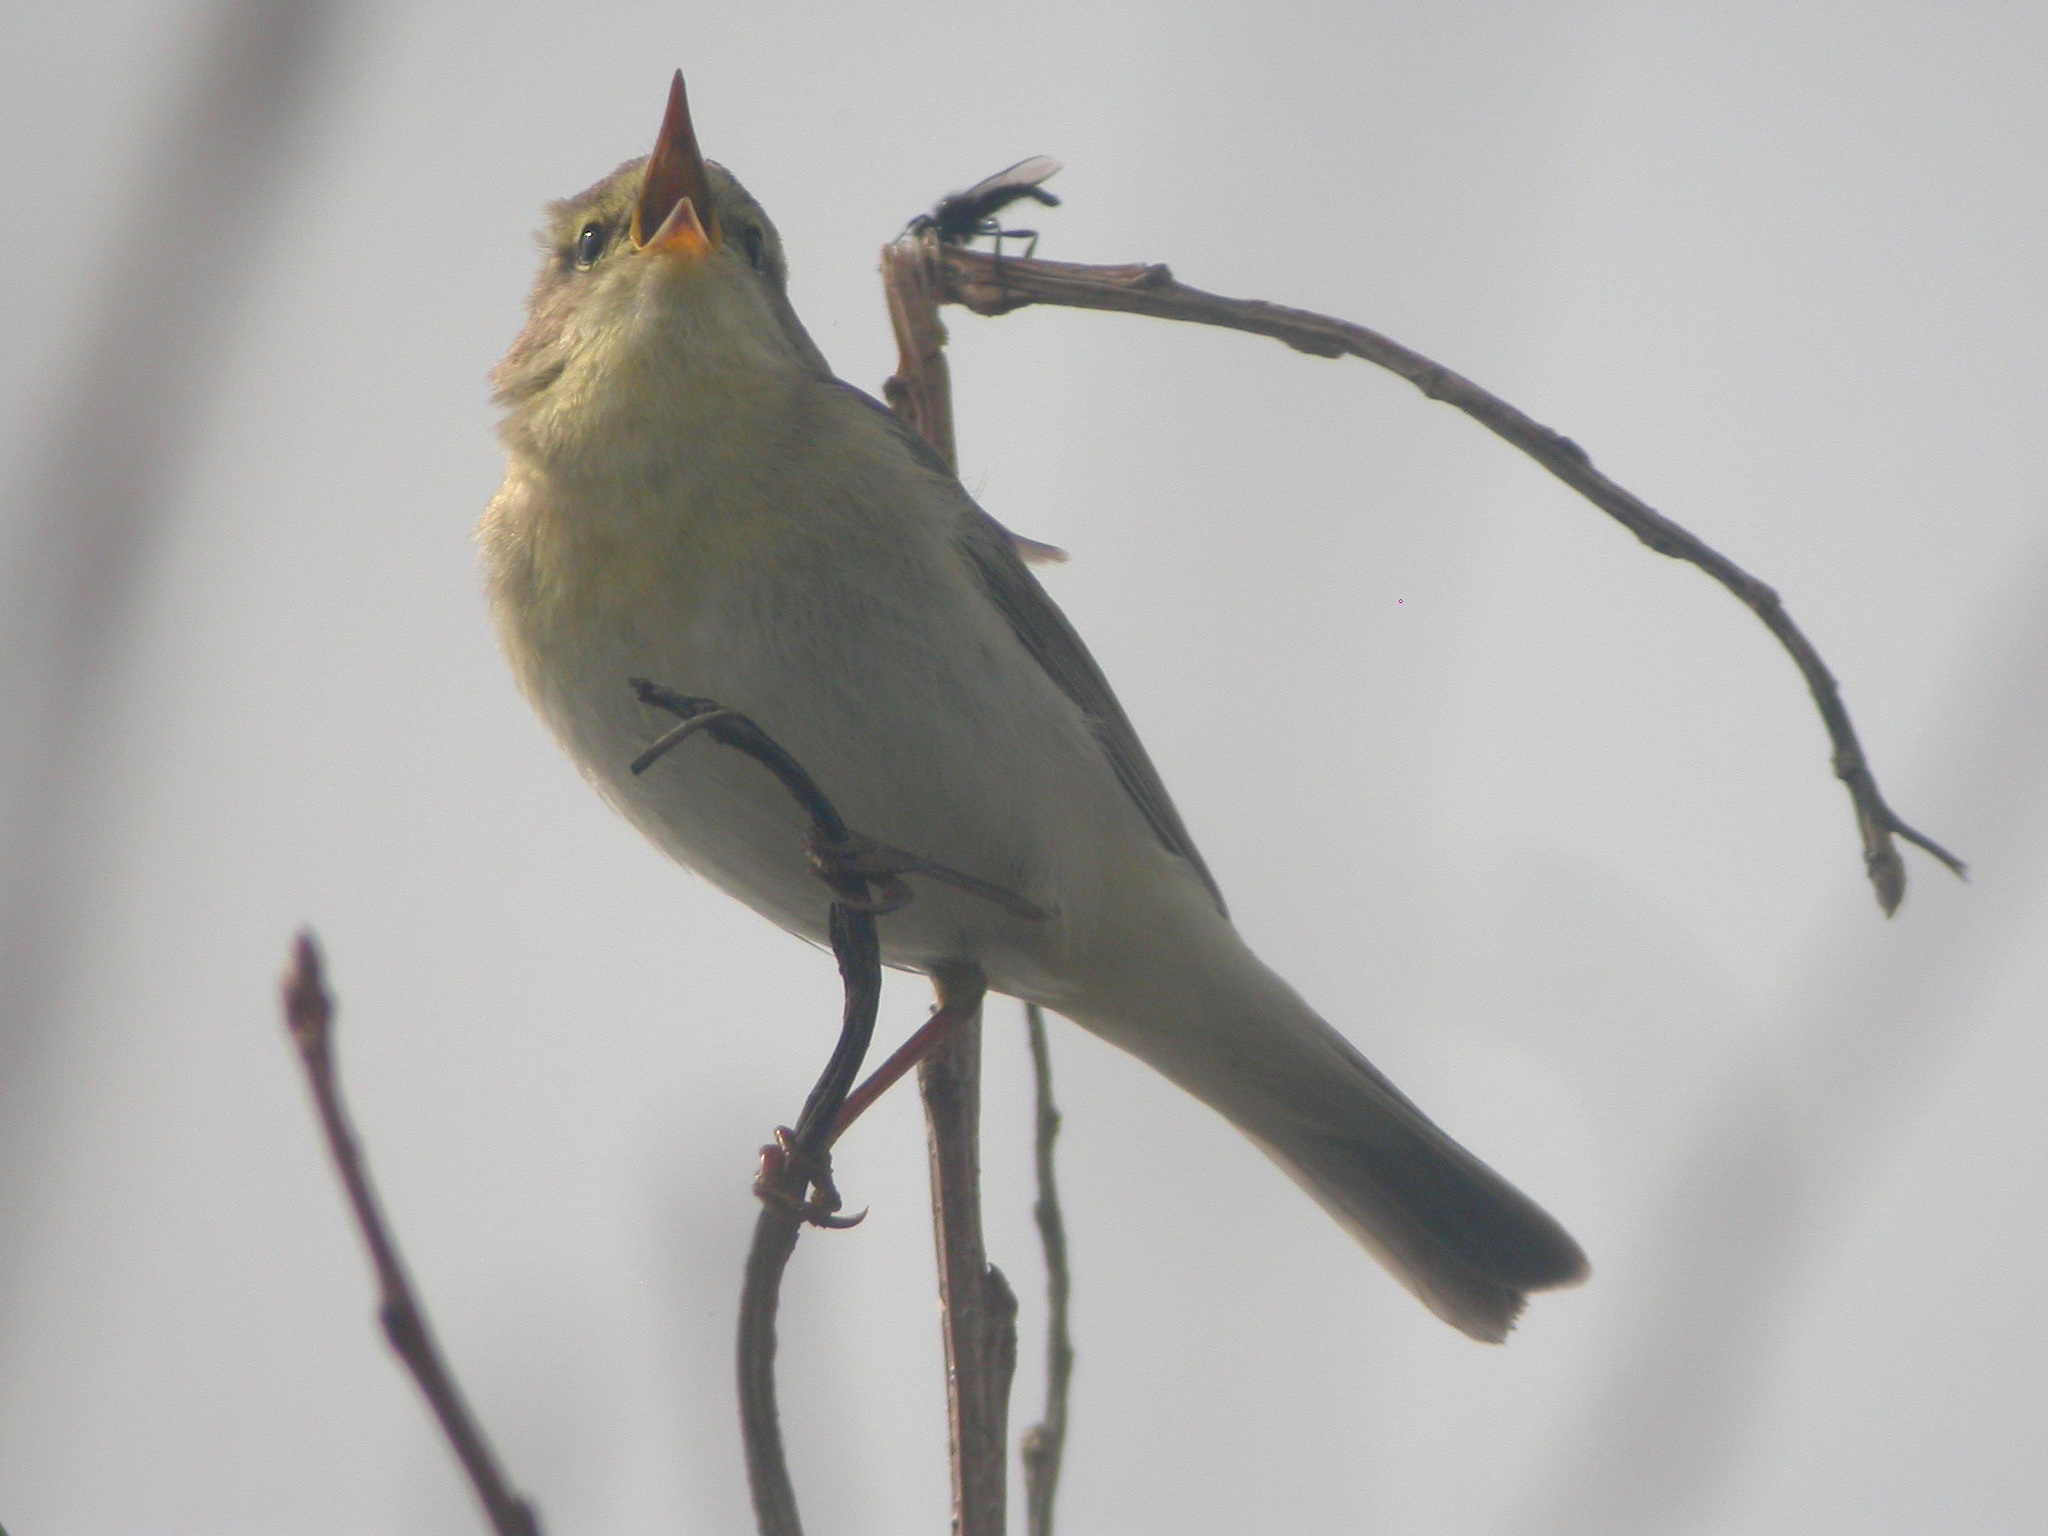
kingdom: Animalia
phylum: Chordata
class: Aves
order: Passeriformes
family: Phylloscopidae
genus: Phylloscopus
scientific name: Phylloscopus trochilus
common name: Willow warbler
